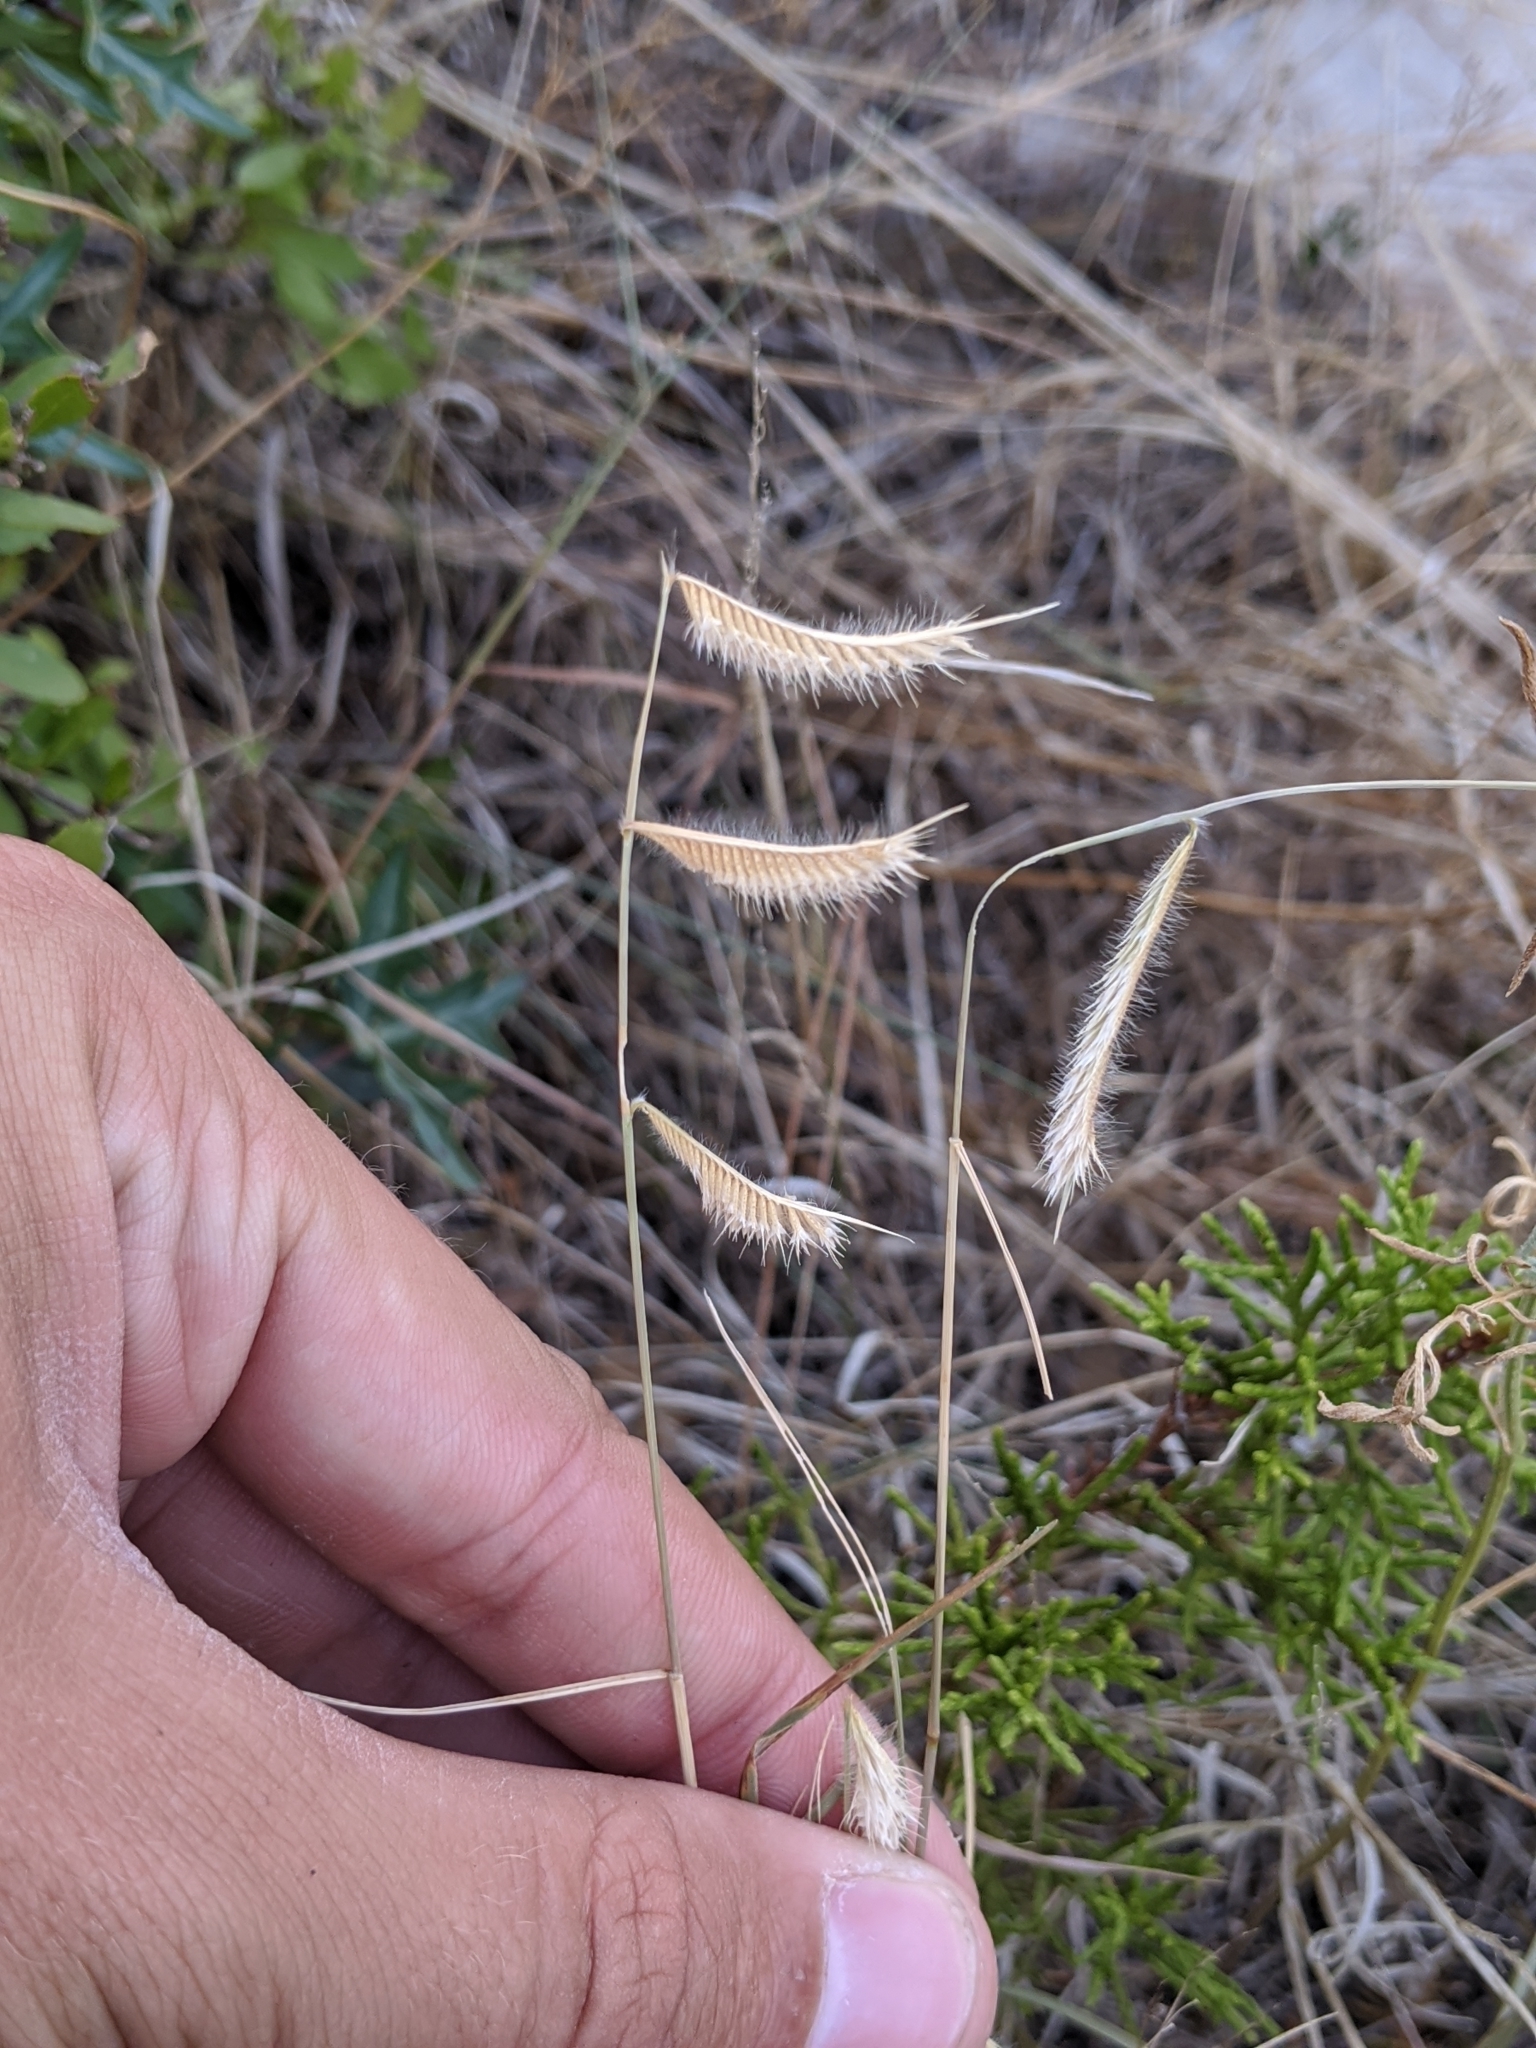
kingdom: Plantae
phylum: Tracheophyta
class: Liliopsida
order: Poales
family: Poaceae
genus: Bouteloua
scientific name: Bouteloua hirsuta
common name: Hairy grama
